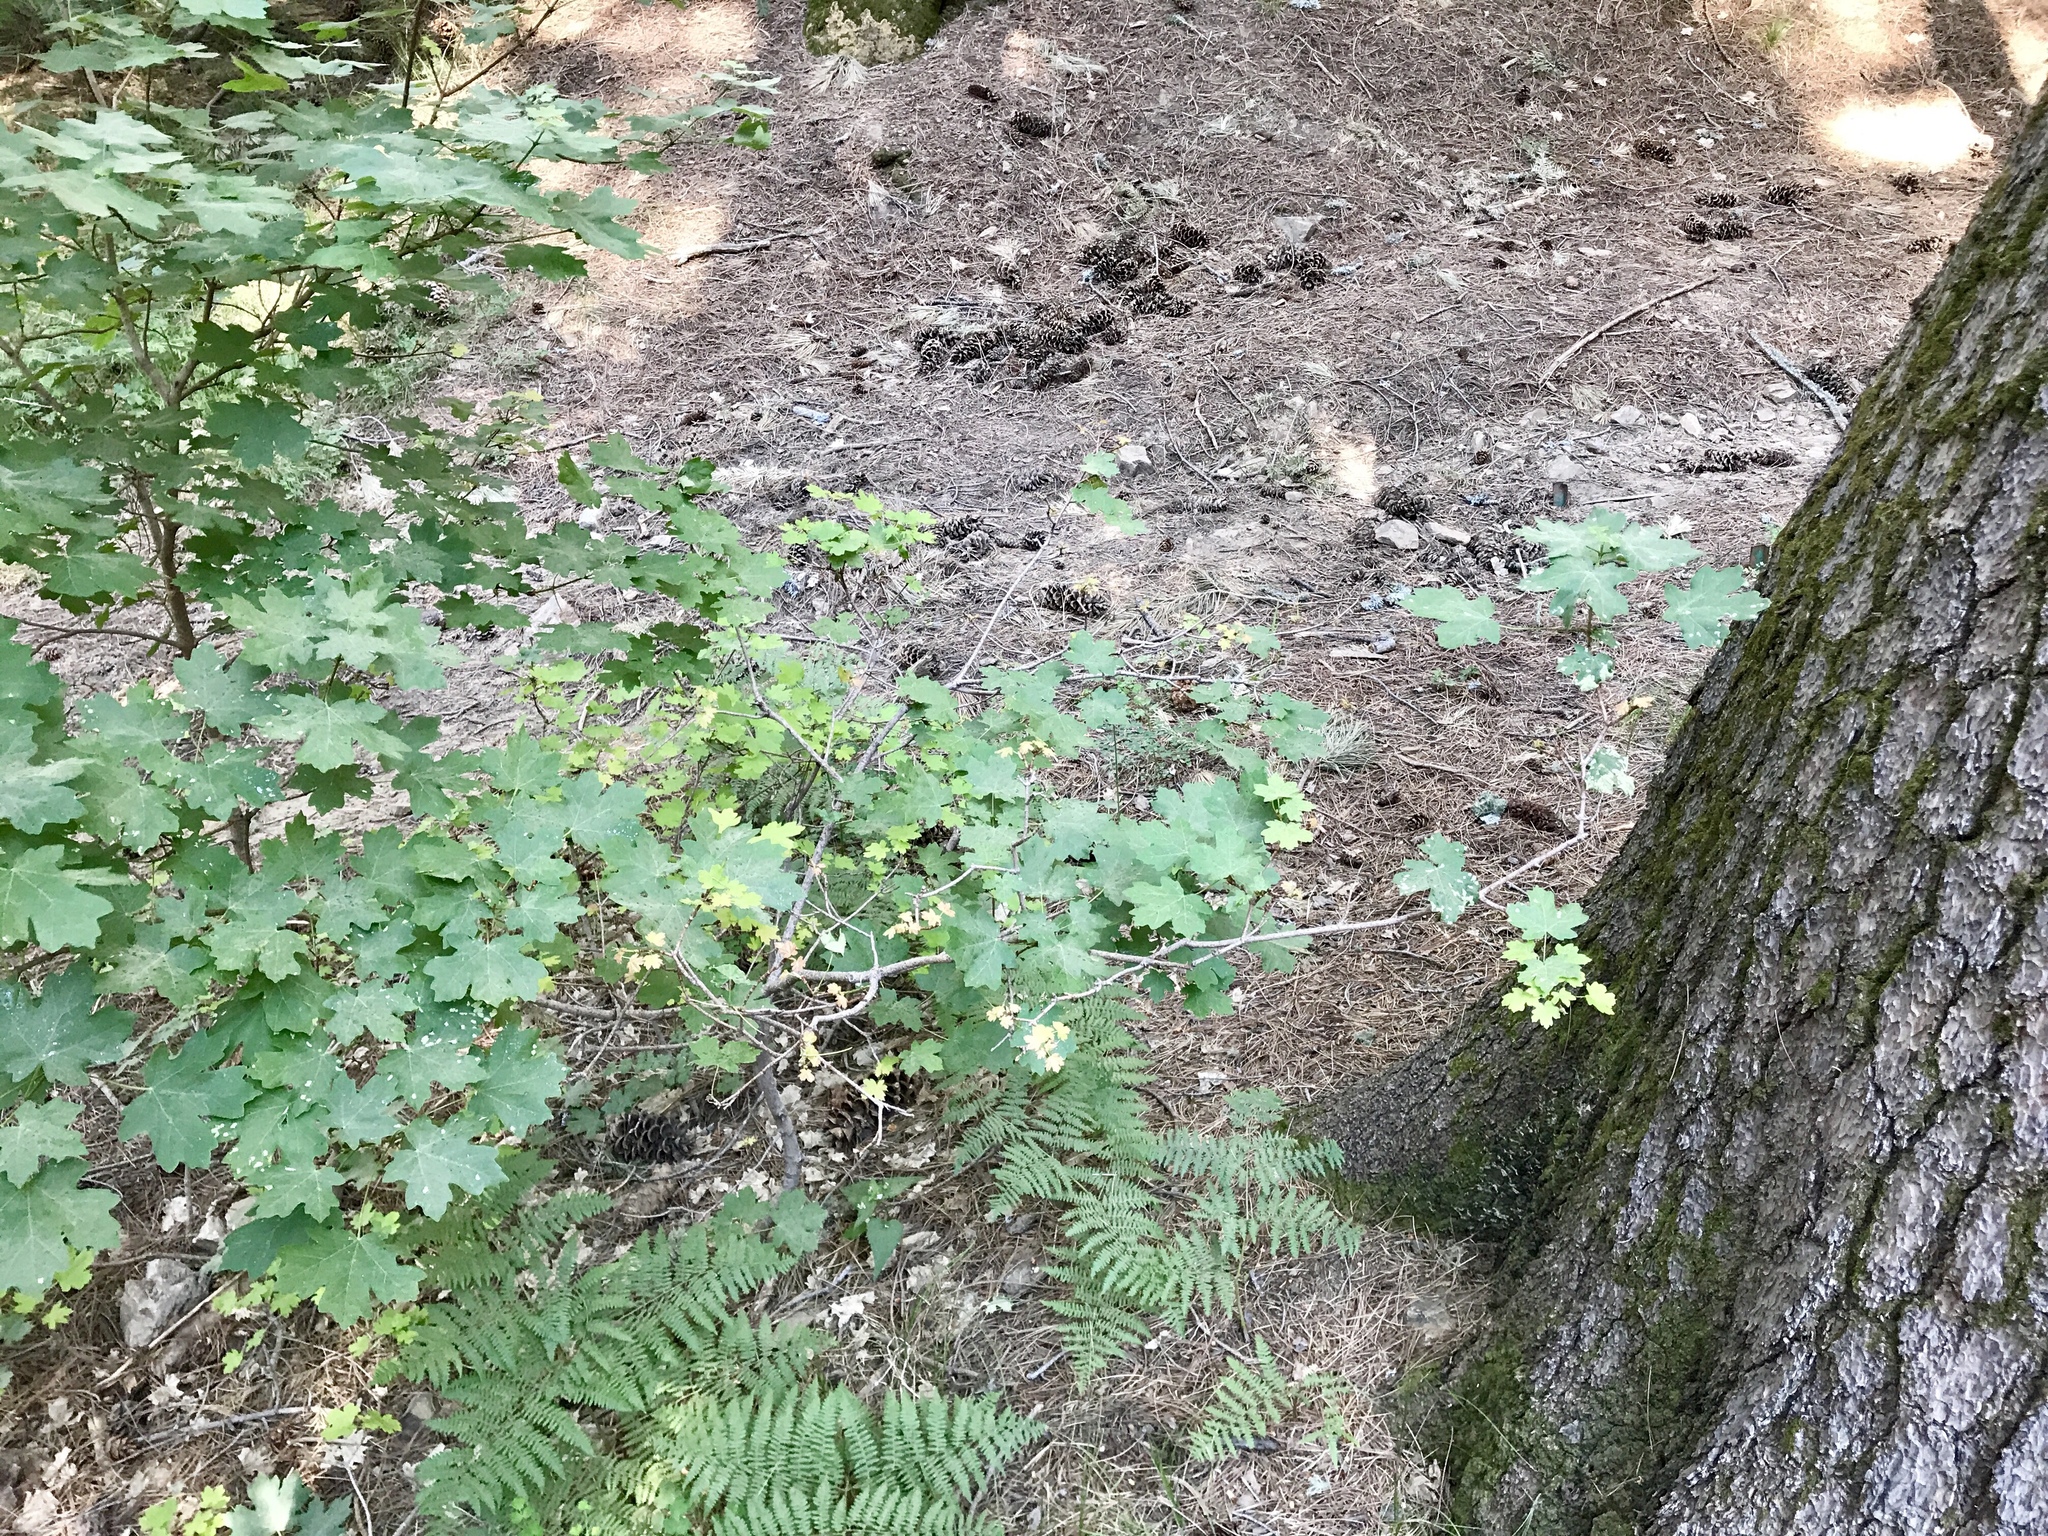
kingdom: Plantae
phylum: Tracheophyta
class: Magnoliopsida
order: Sapindales
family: Sapindaceae
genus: Acer
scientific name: Acer grandidentatum
